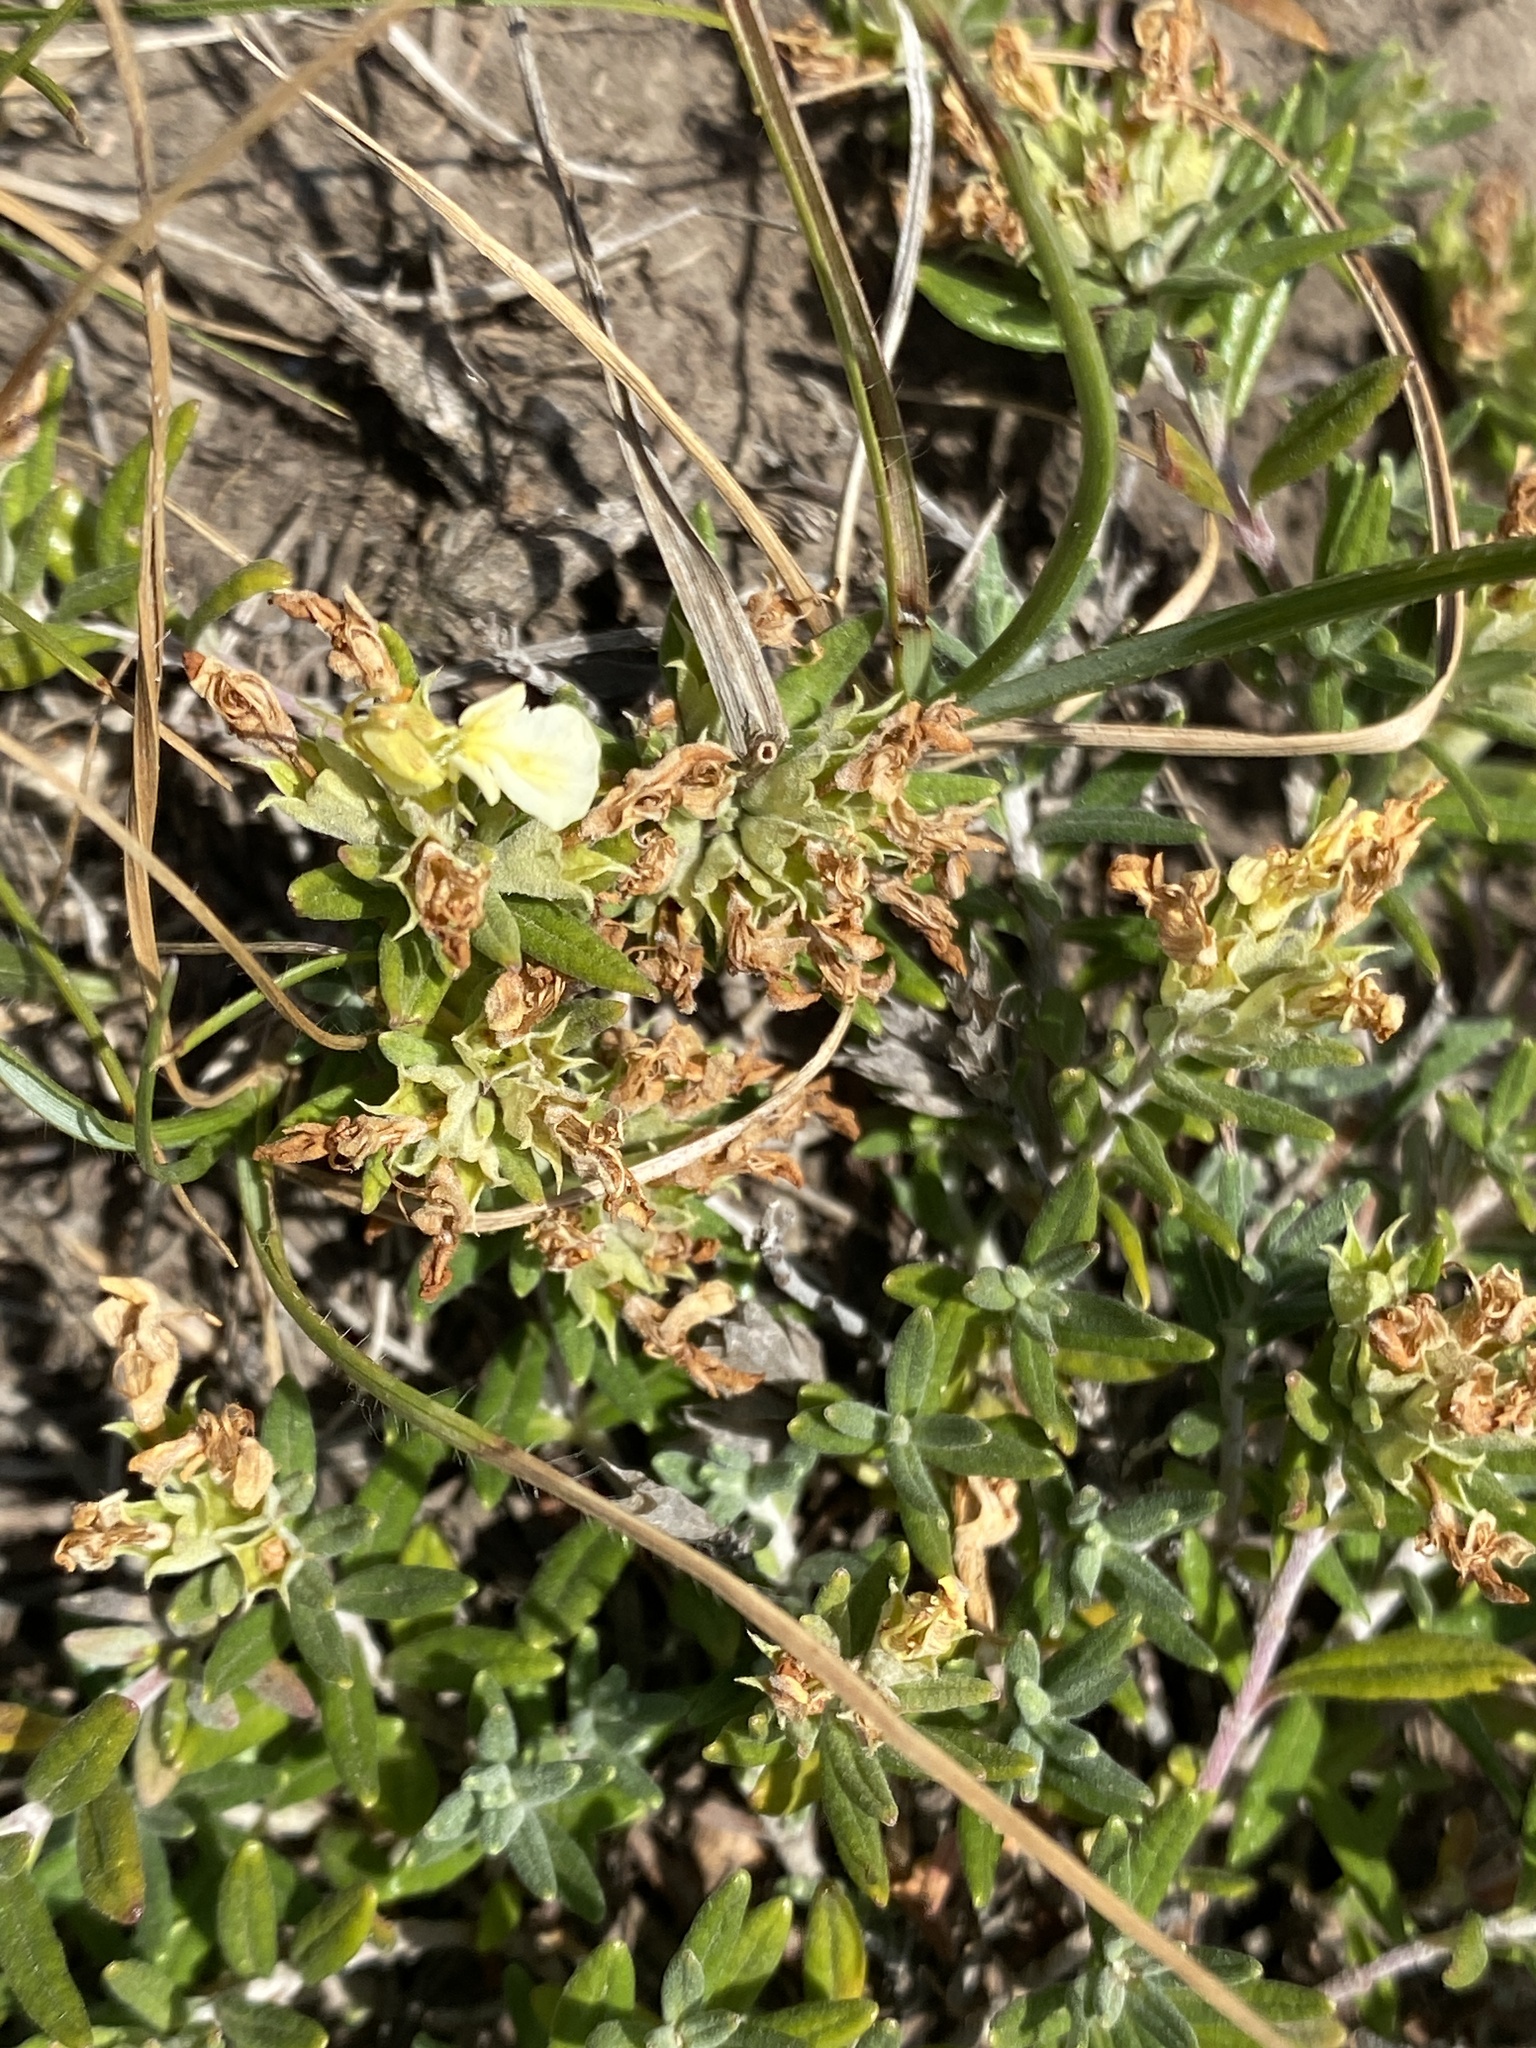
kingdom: Plantae
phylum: Tracheophyta
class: Magnoliopsida
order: Lamiales
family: Lamiaceae
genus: Teucrium
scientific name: Teucrium montanum
